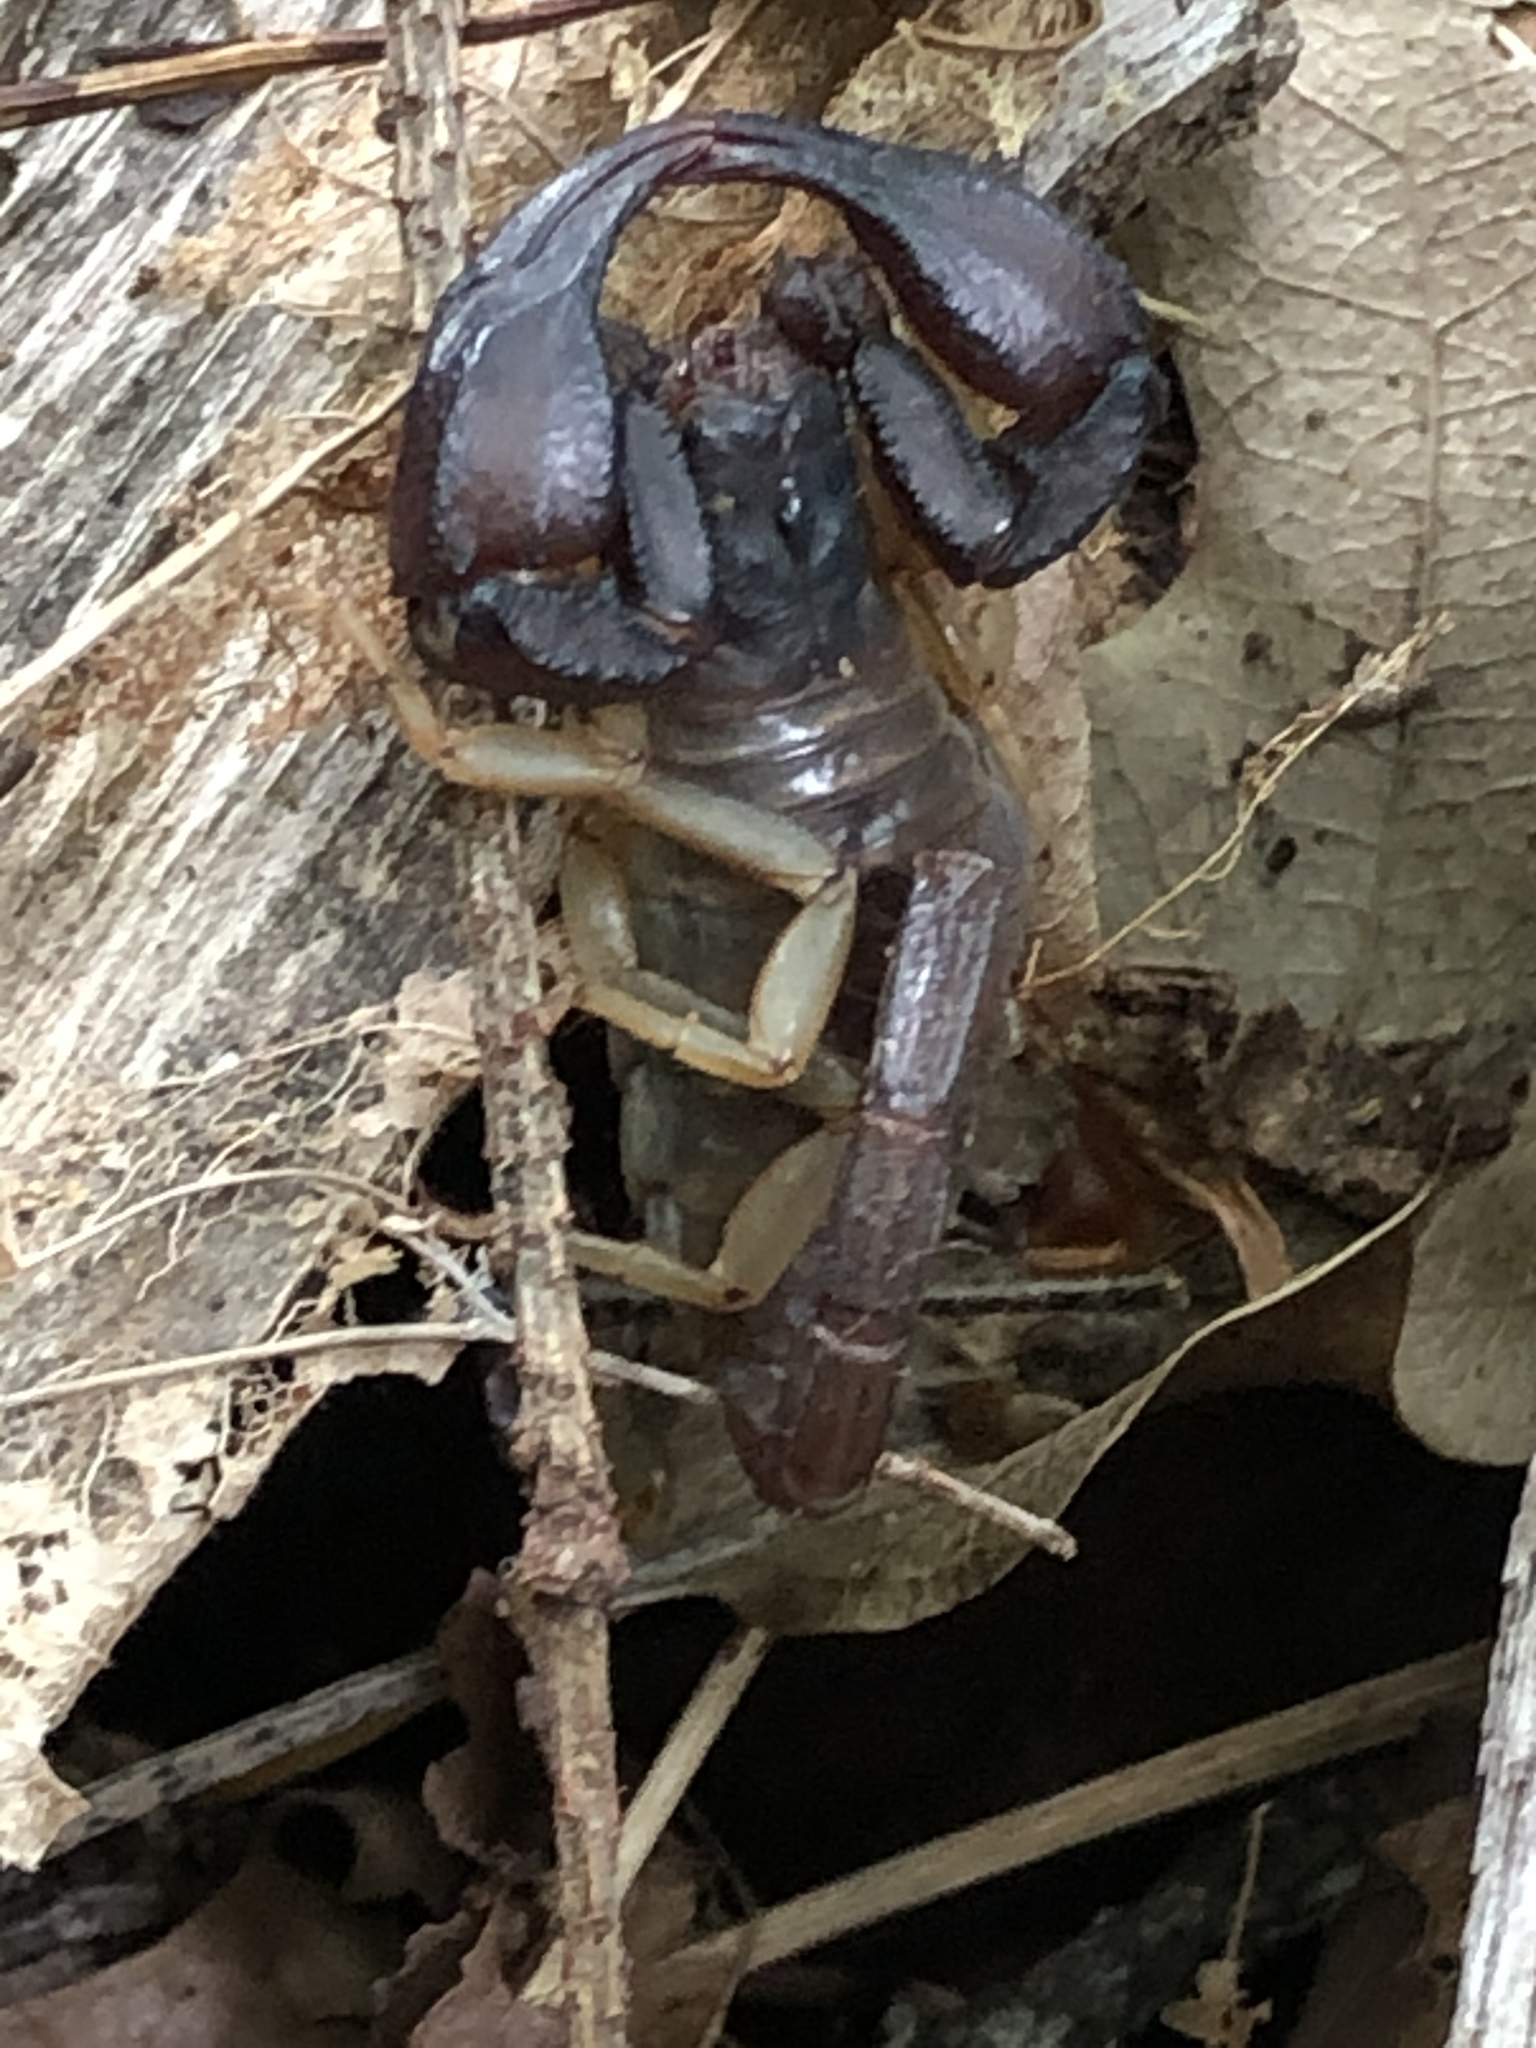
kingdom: Animalia
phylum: Arthropoda
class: Arachnida
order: Scorpiones
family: Chactidae
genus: Uroctonus
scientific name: Uroctonus mordax
